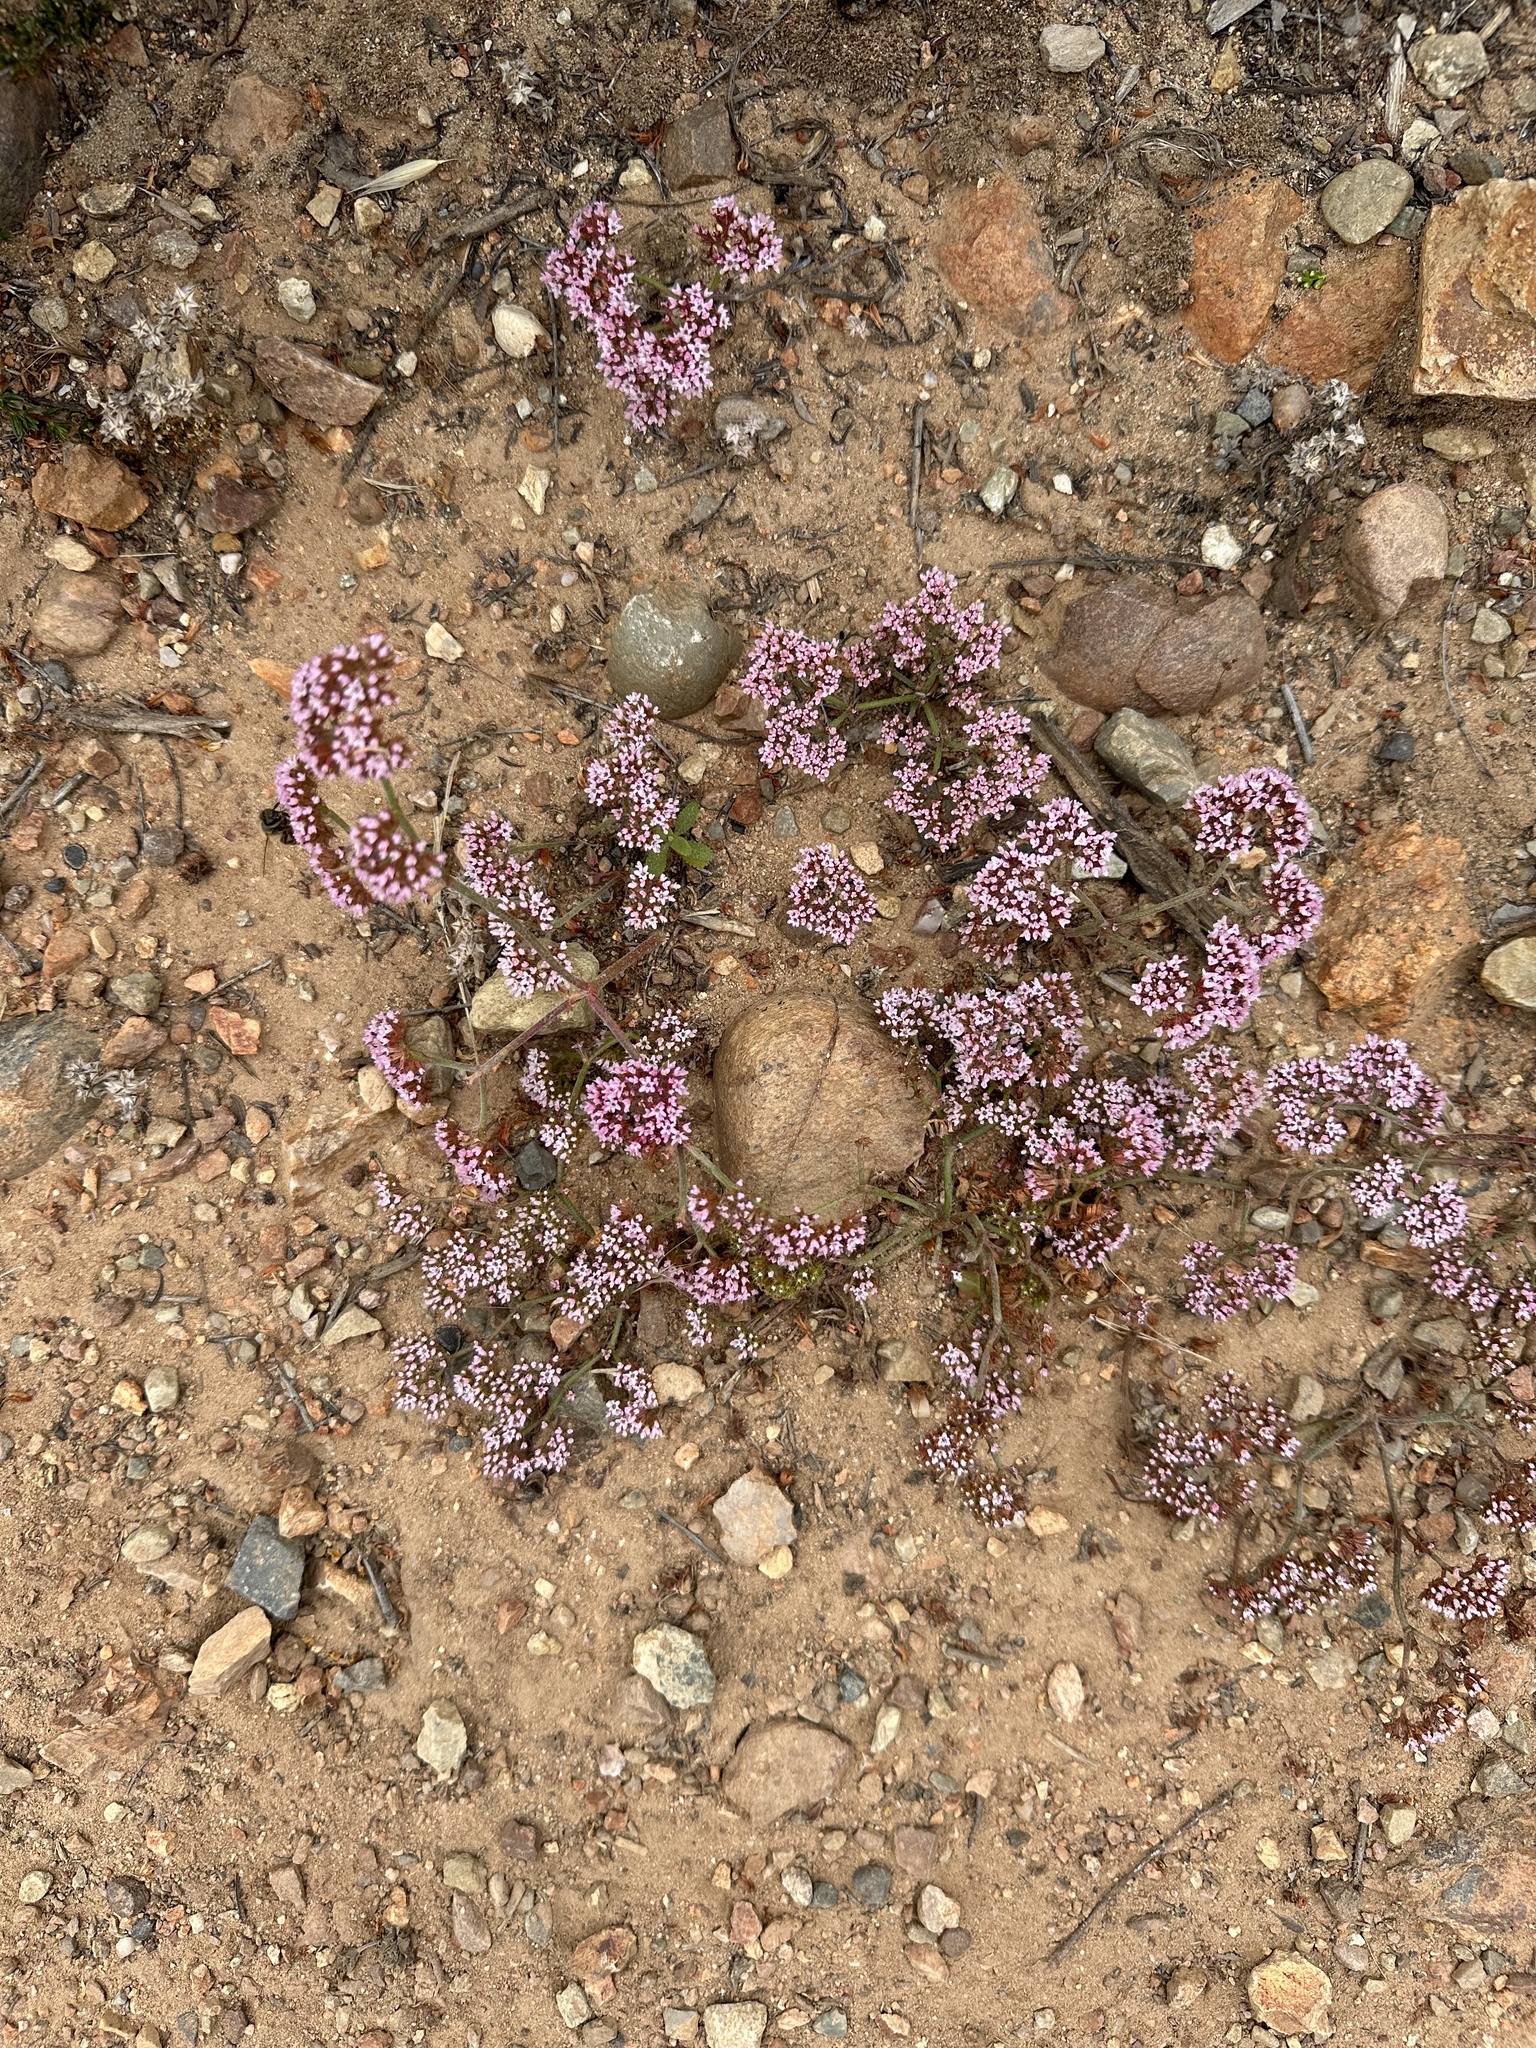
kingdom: Plantae
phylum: Tracheophyta
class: Magnoliopsida
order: Caryophyllales
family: Polygonaceae
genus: Chorizanthe
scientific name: Chorizanthe staticoides
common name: Turkish rugging
